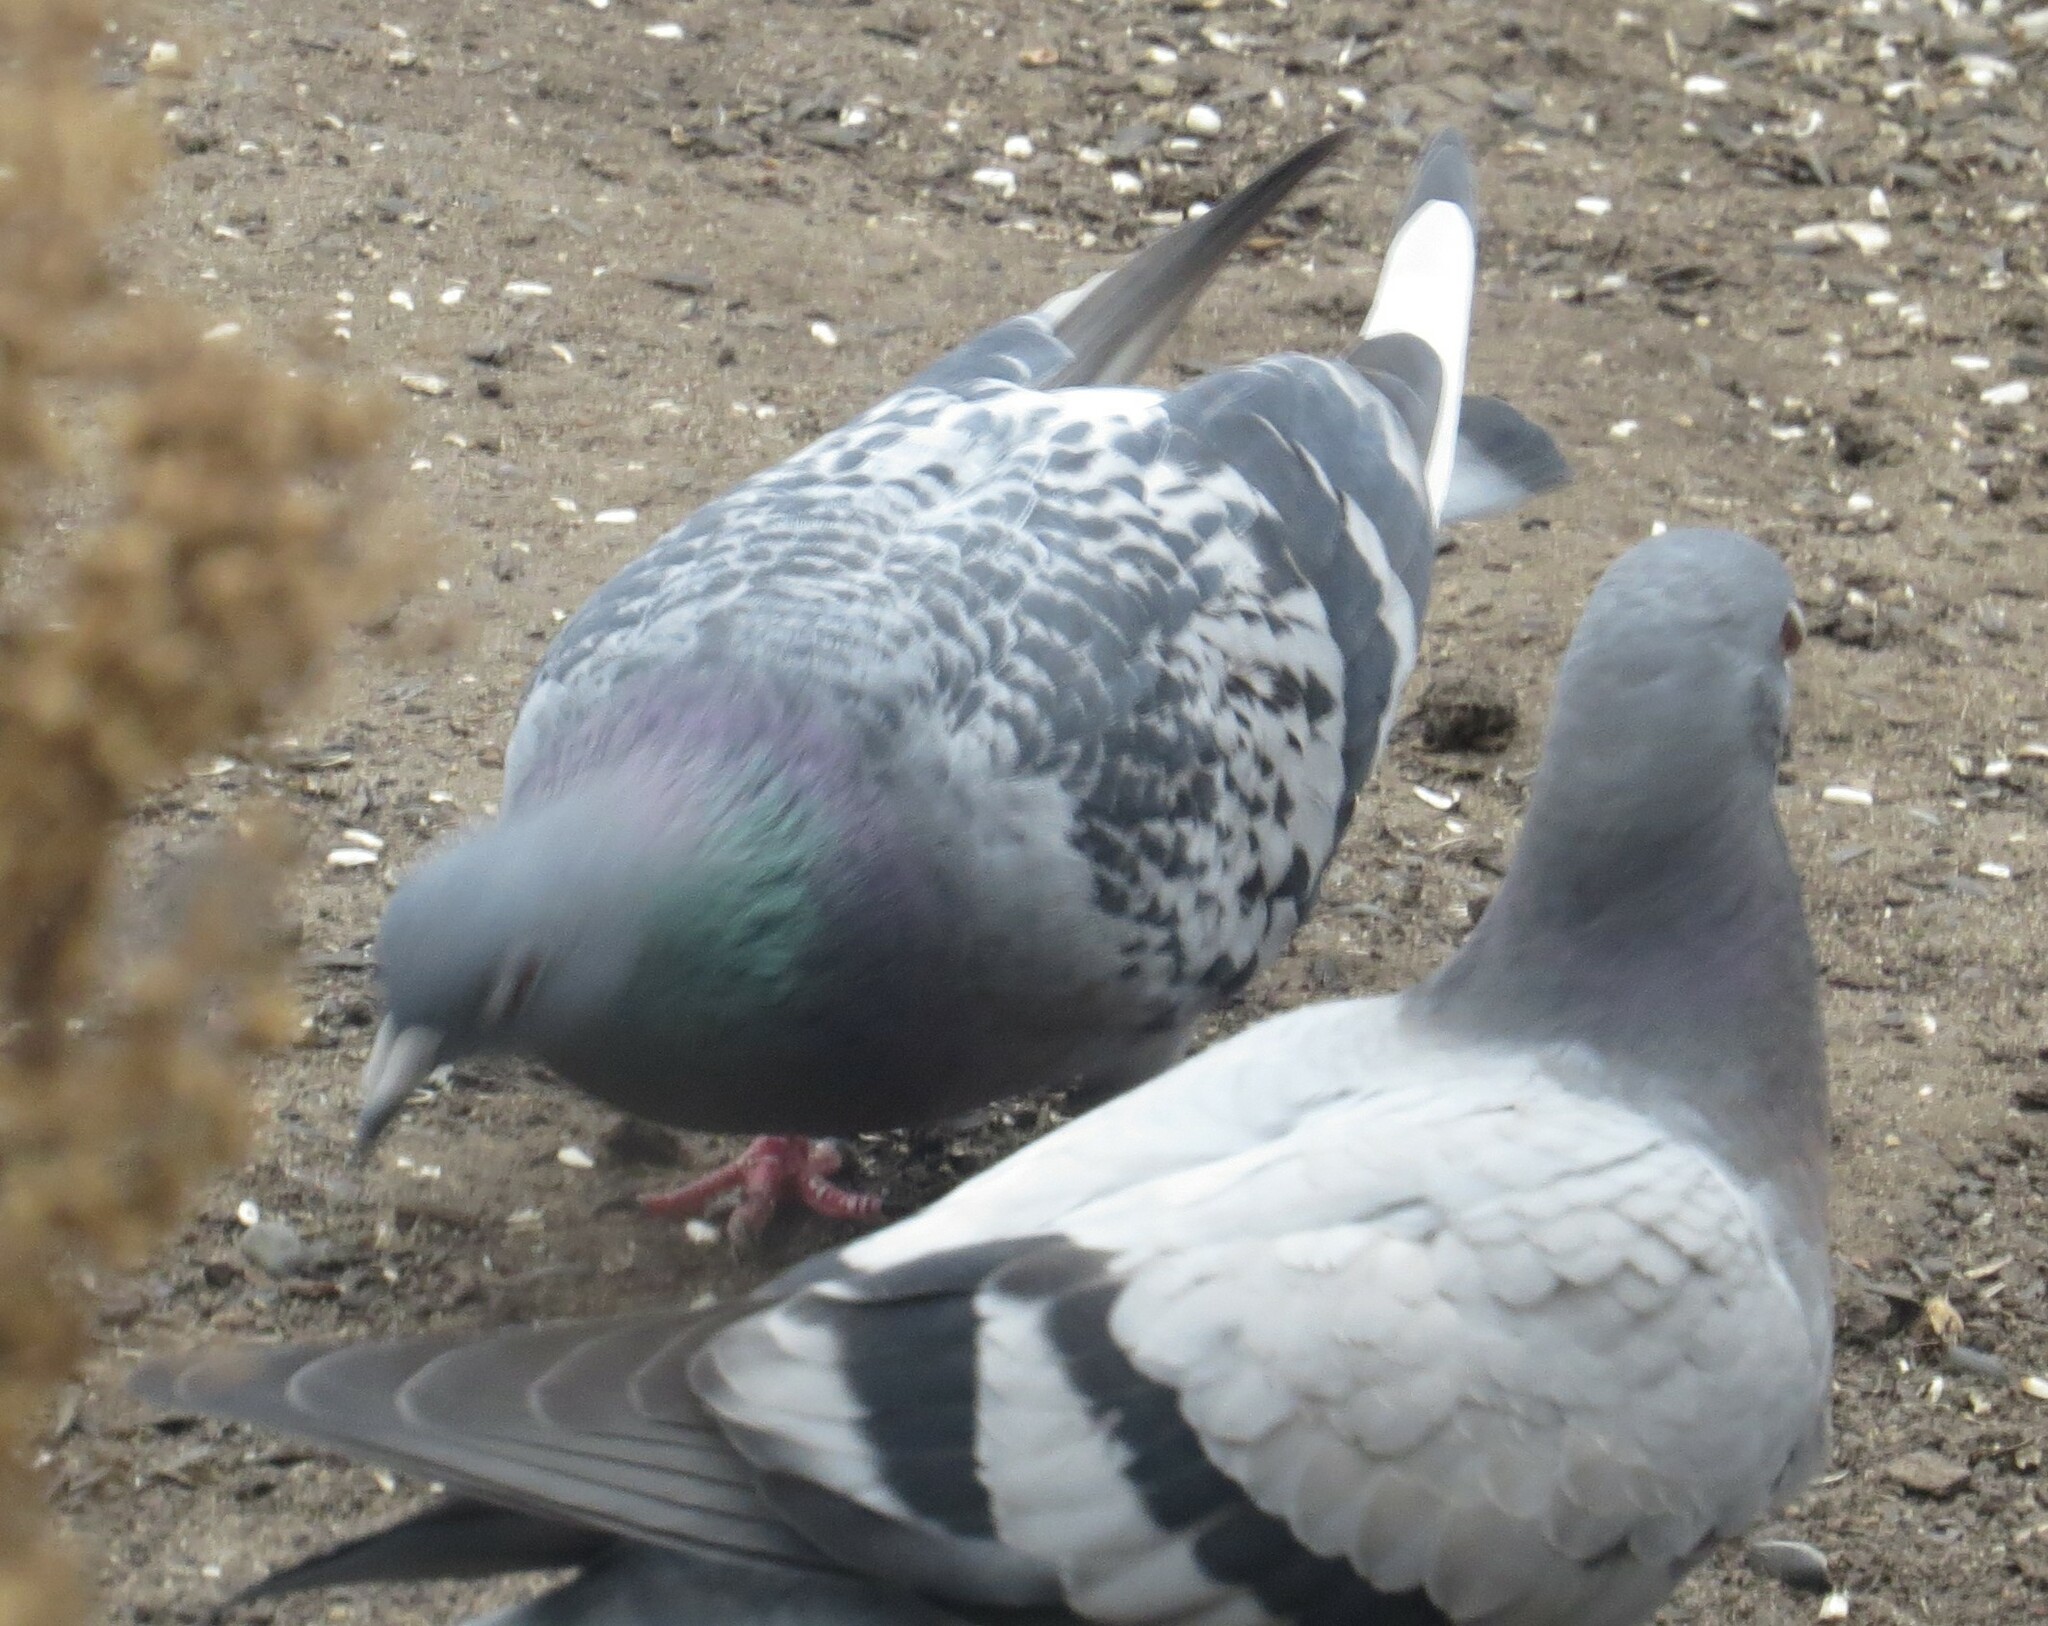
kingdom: Animalia
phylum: Chordata
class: Aves
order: Columbiformes
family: Columbidae
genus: Columba
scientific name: Columba livia
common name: Rock pigeon
